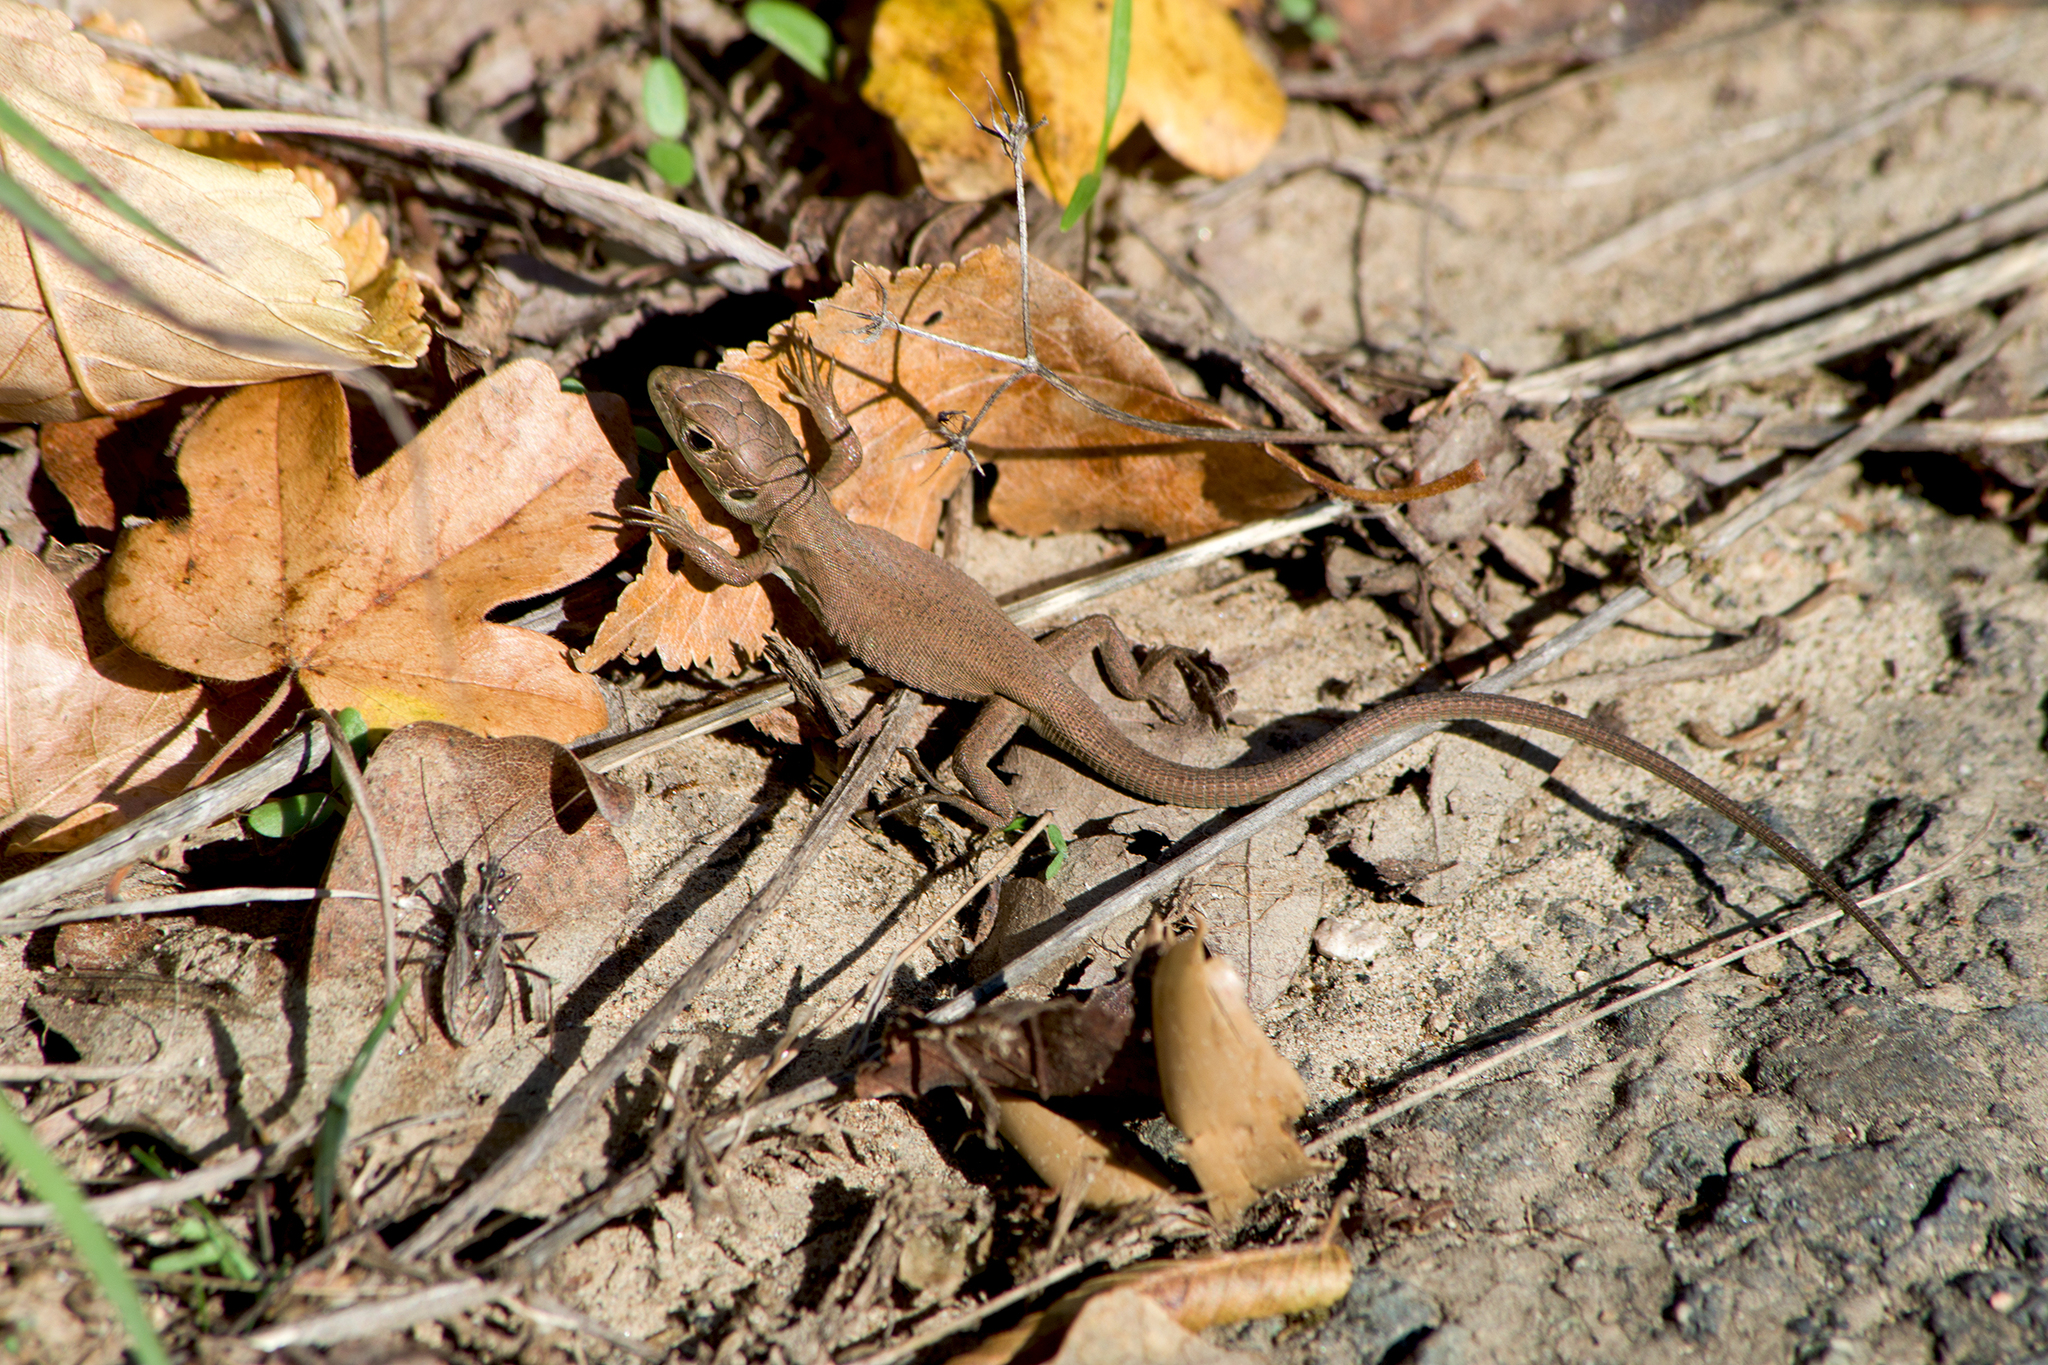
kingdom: Animalia
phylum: Chordata
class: Squamata
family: Lacertidae
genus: Lacerta
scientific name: Lacerta viridis
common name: European green lizard
